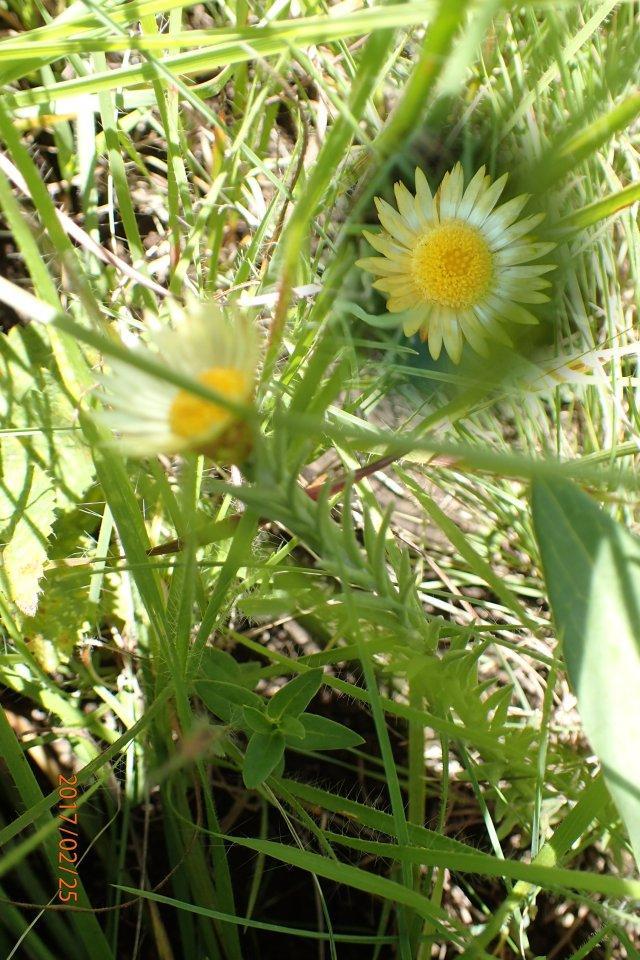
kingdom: Plantae
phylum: Tracheophyta
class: Magnoliopsida
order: Asterales
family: Asteraceae
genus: Helichrysum
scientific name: Helichrysum herbaceum
